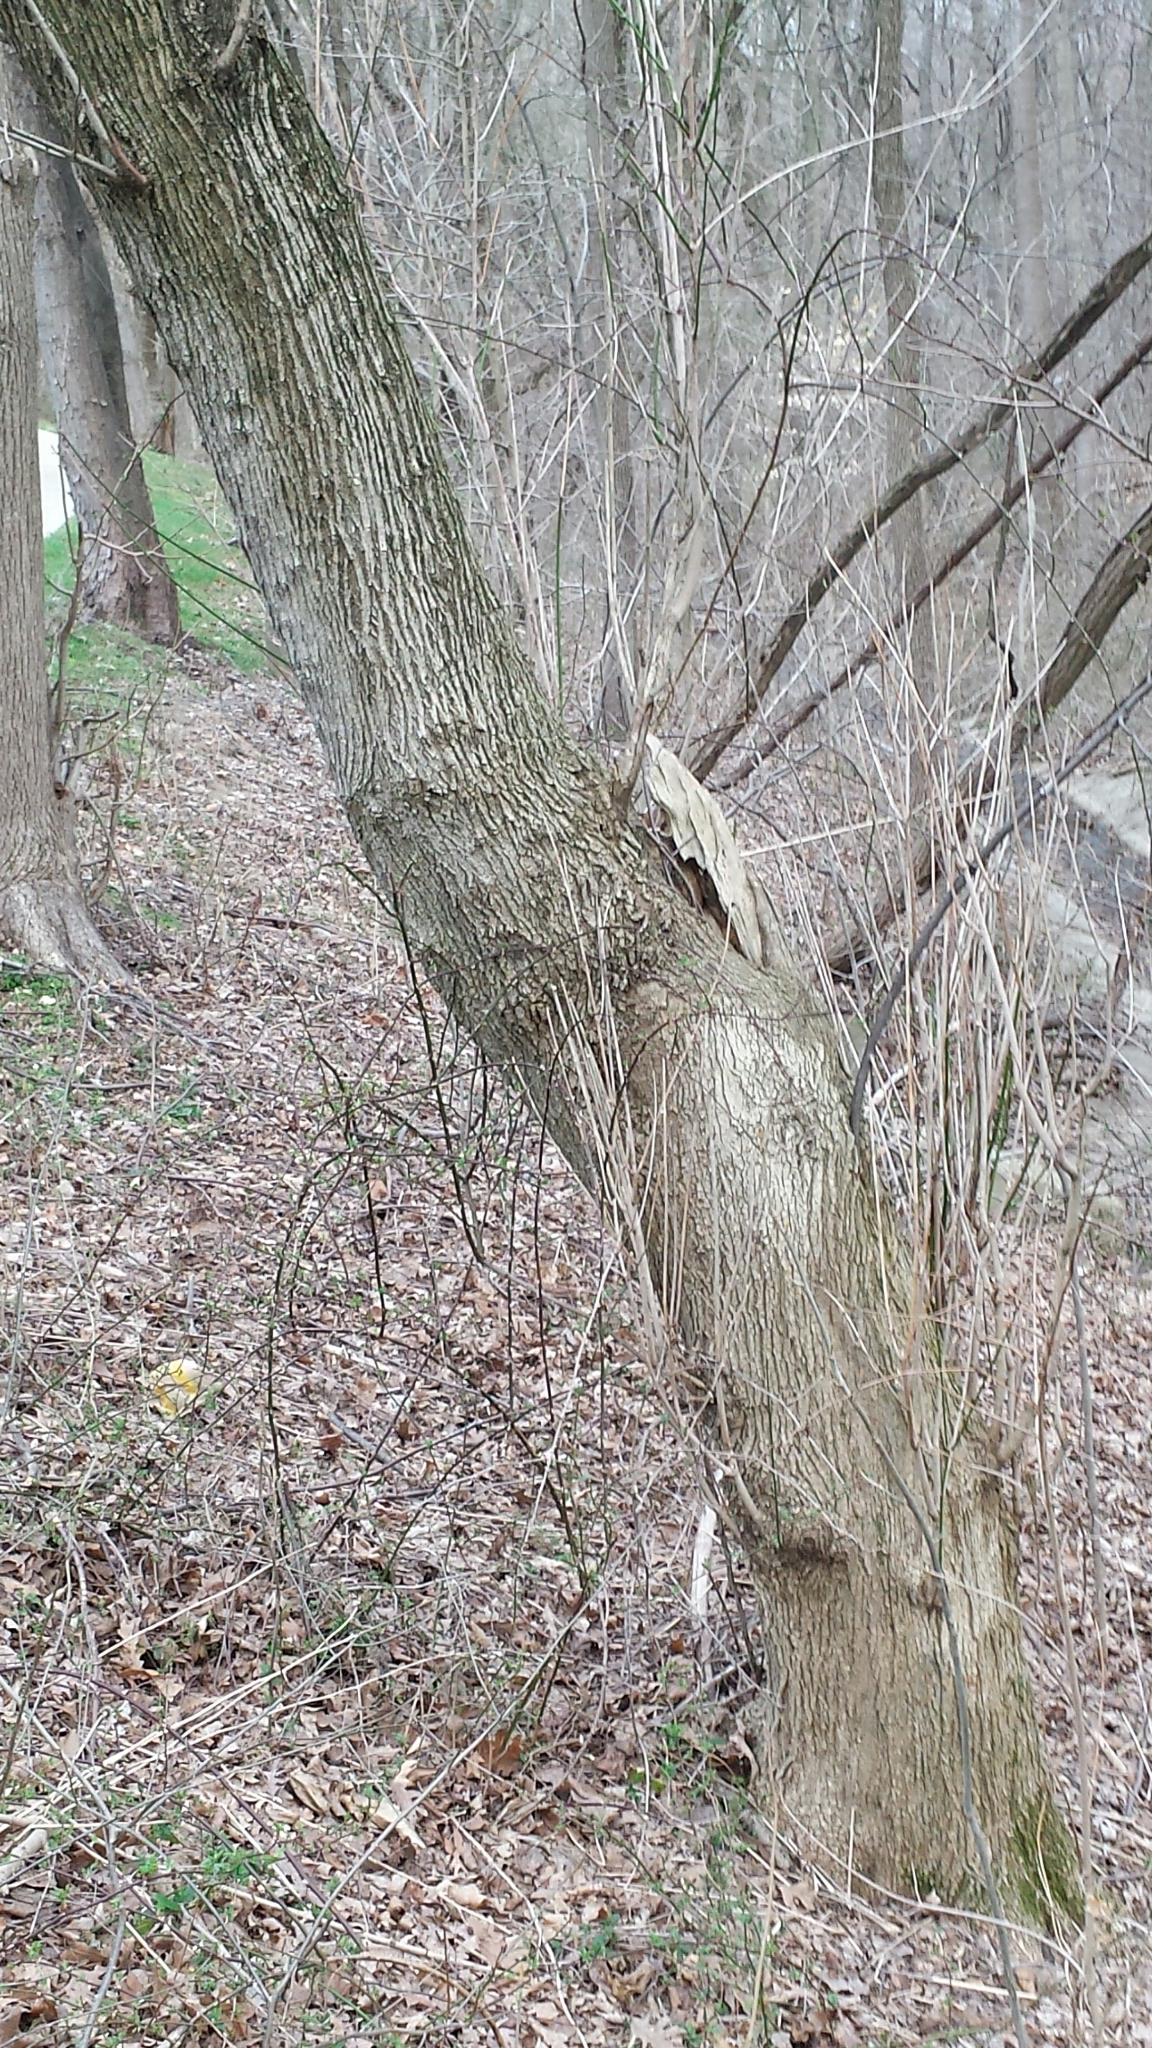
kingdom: Plantae
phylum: Tracheophyta
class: Magnoliopsida
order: Sapindales
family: Sapindaceae
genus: Acer
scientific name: Acer negundo
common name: Ashleaf maple
